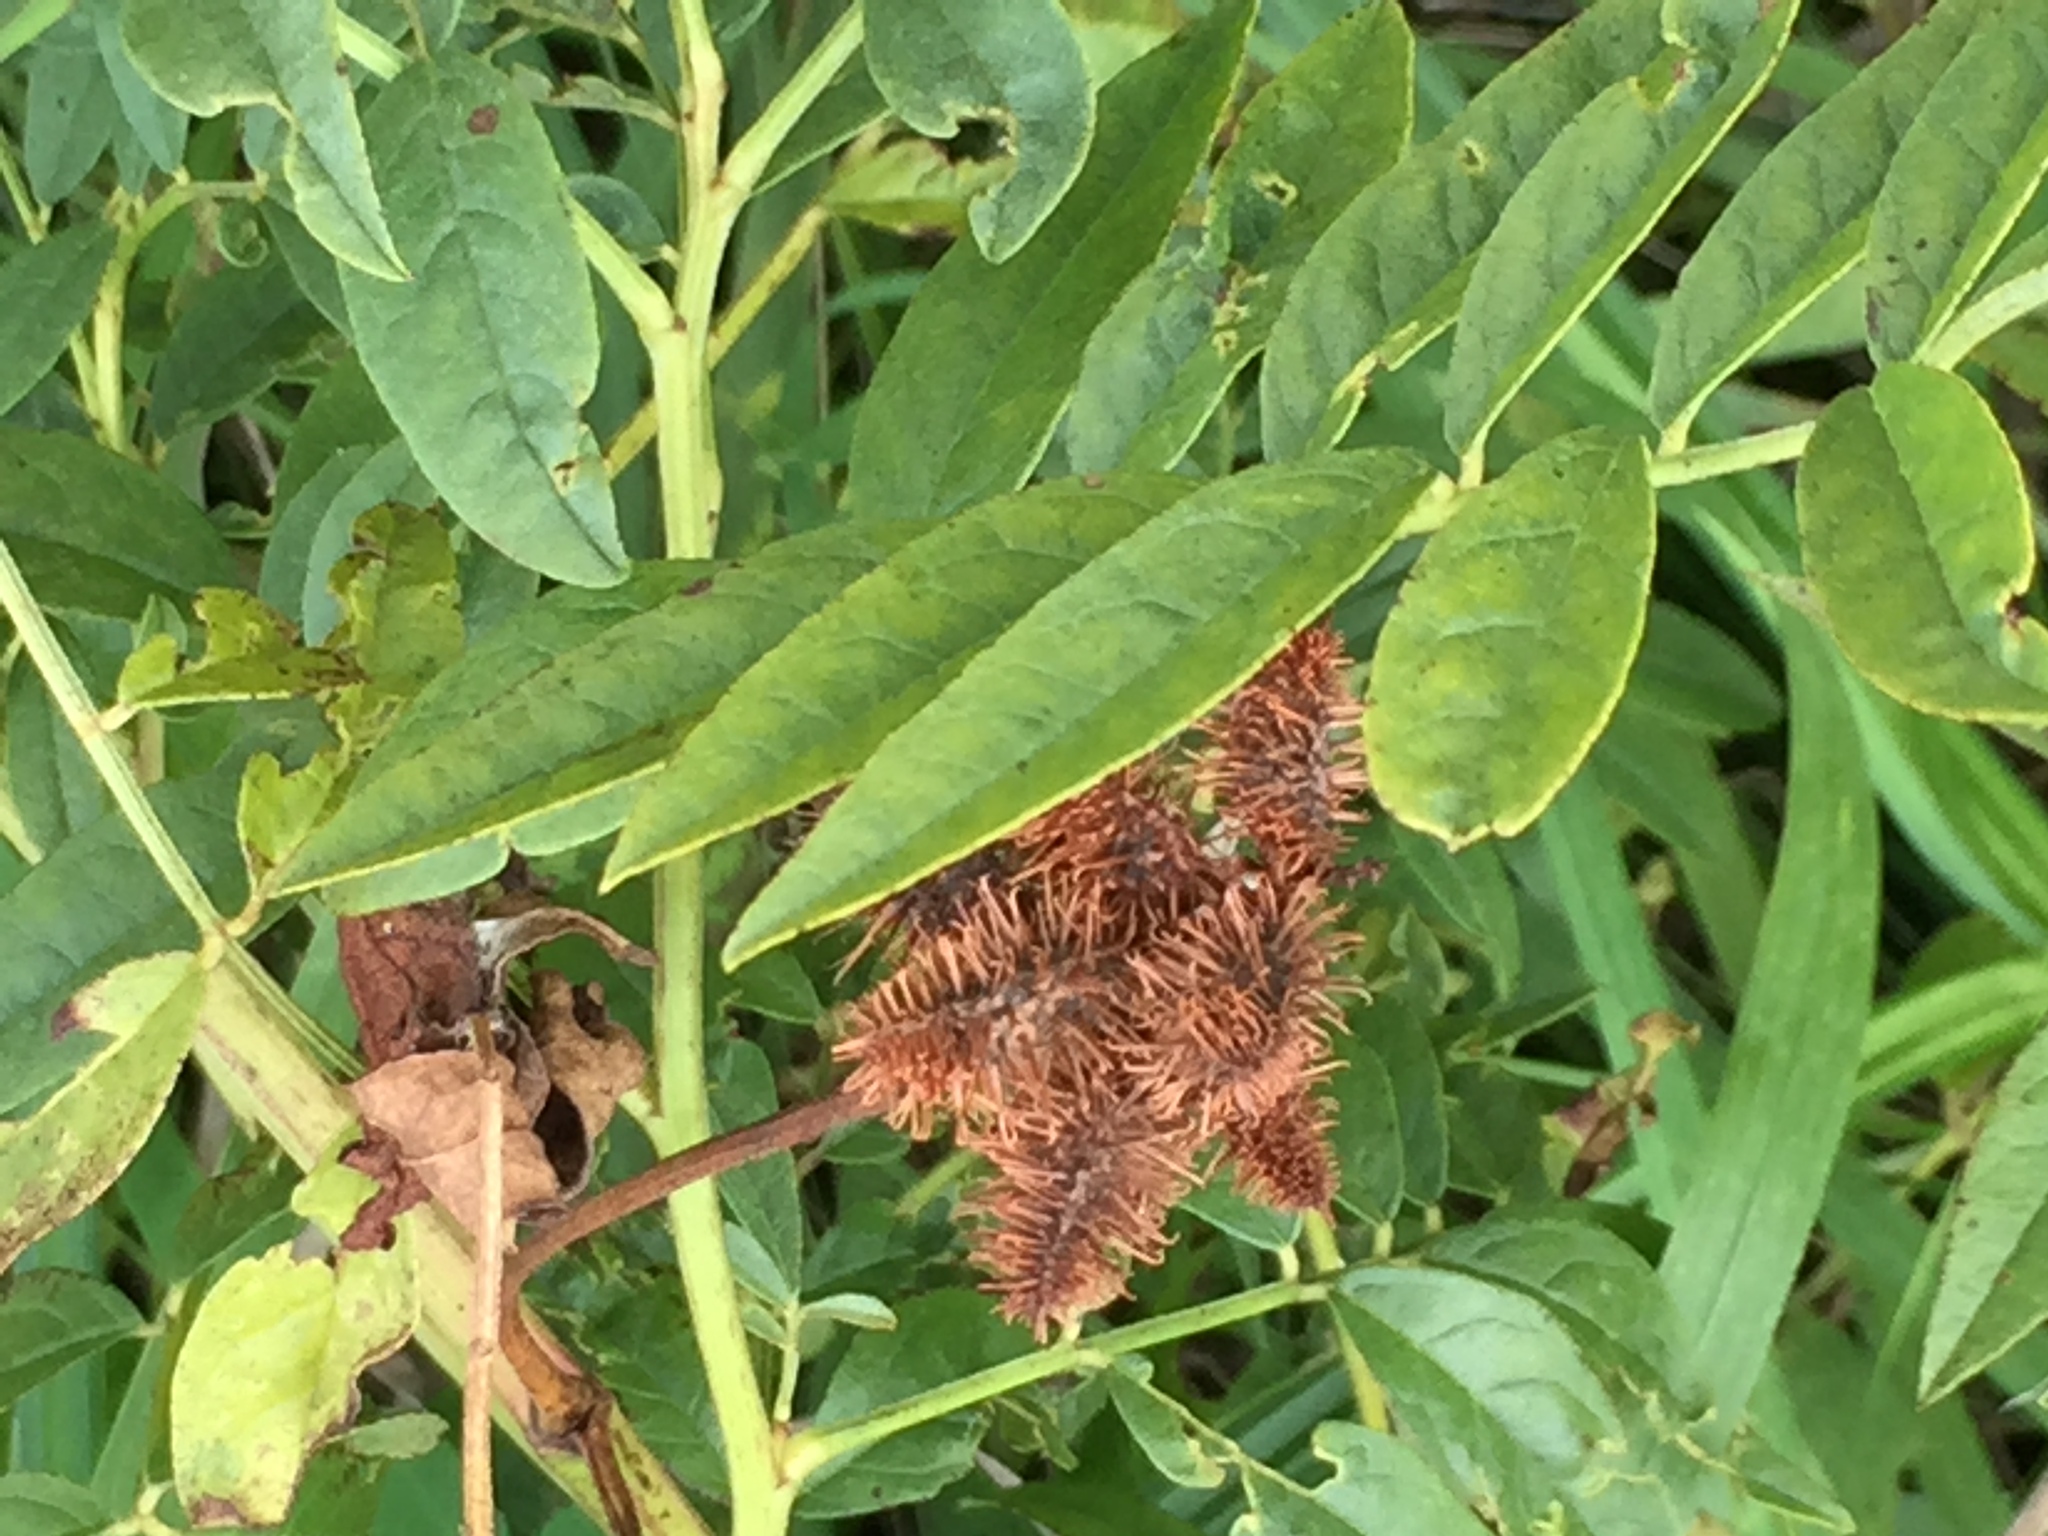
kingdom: Plantae
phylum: Tracheophyta
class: Magnoliopsida
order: Fabales
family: Fabaceae
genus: Glycyrrhiza
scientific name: Glycyrrhiza lepidota
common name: American liquorice
